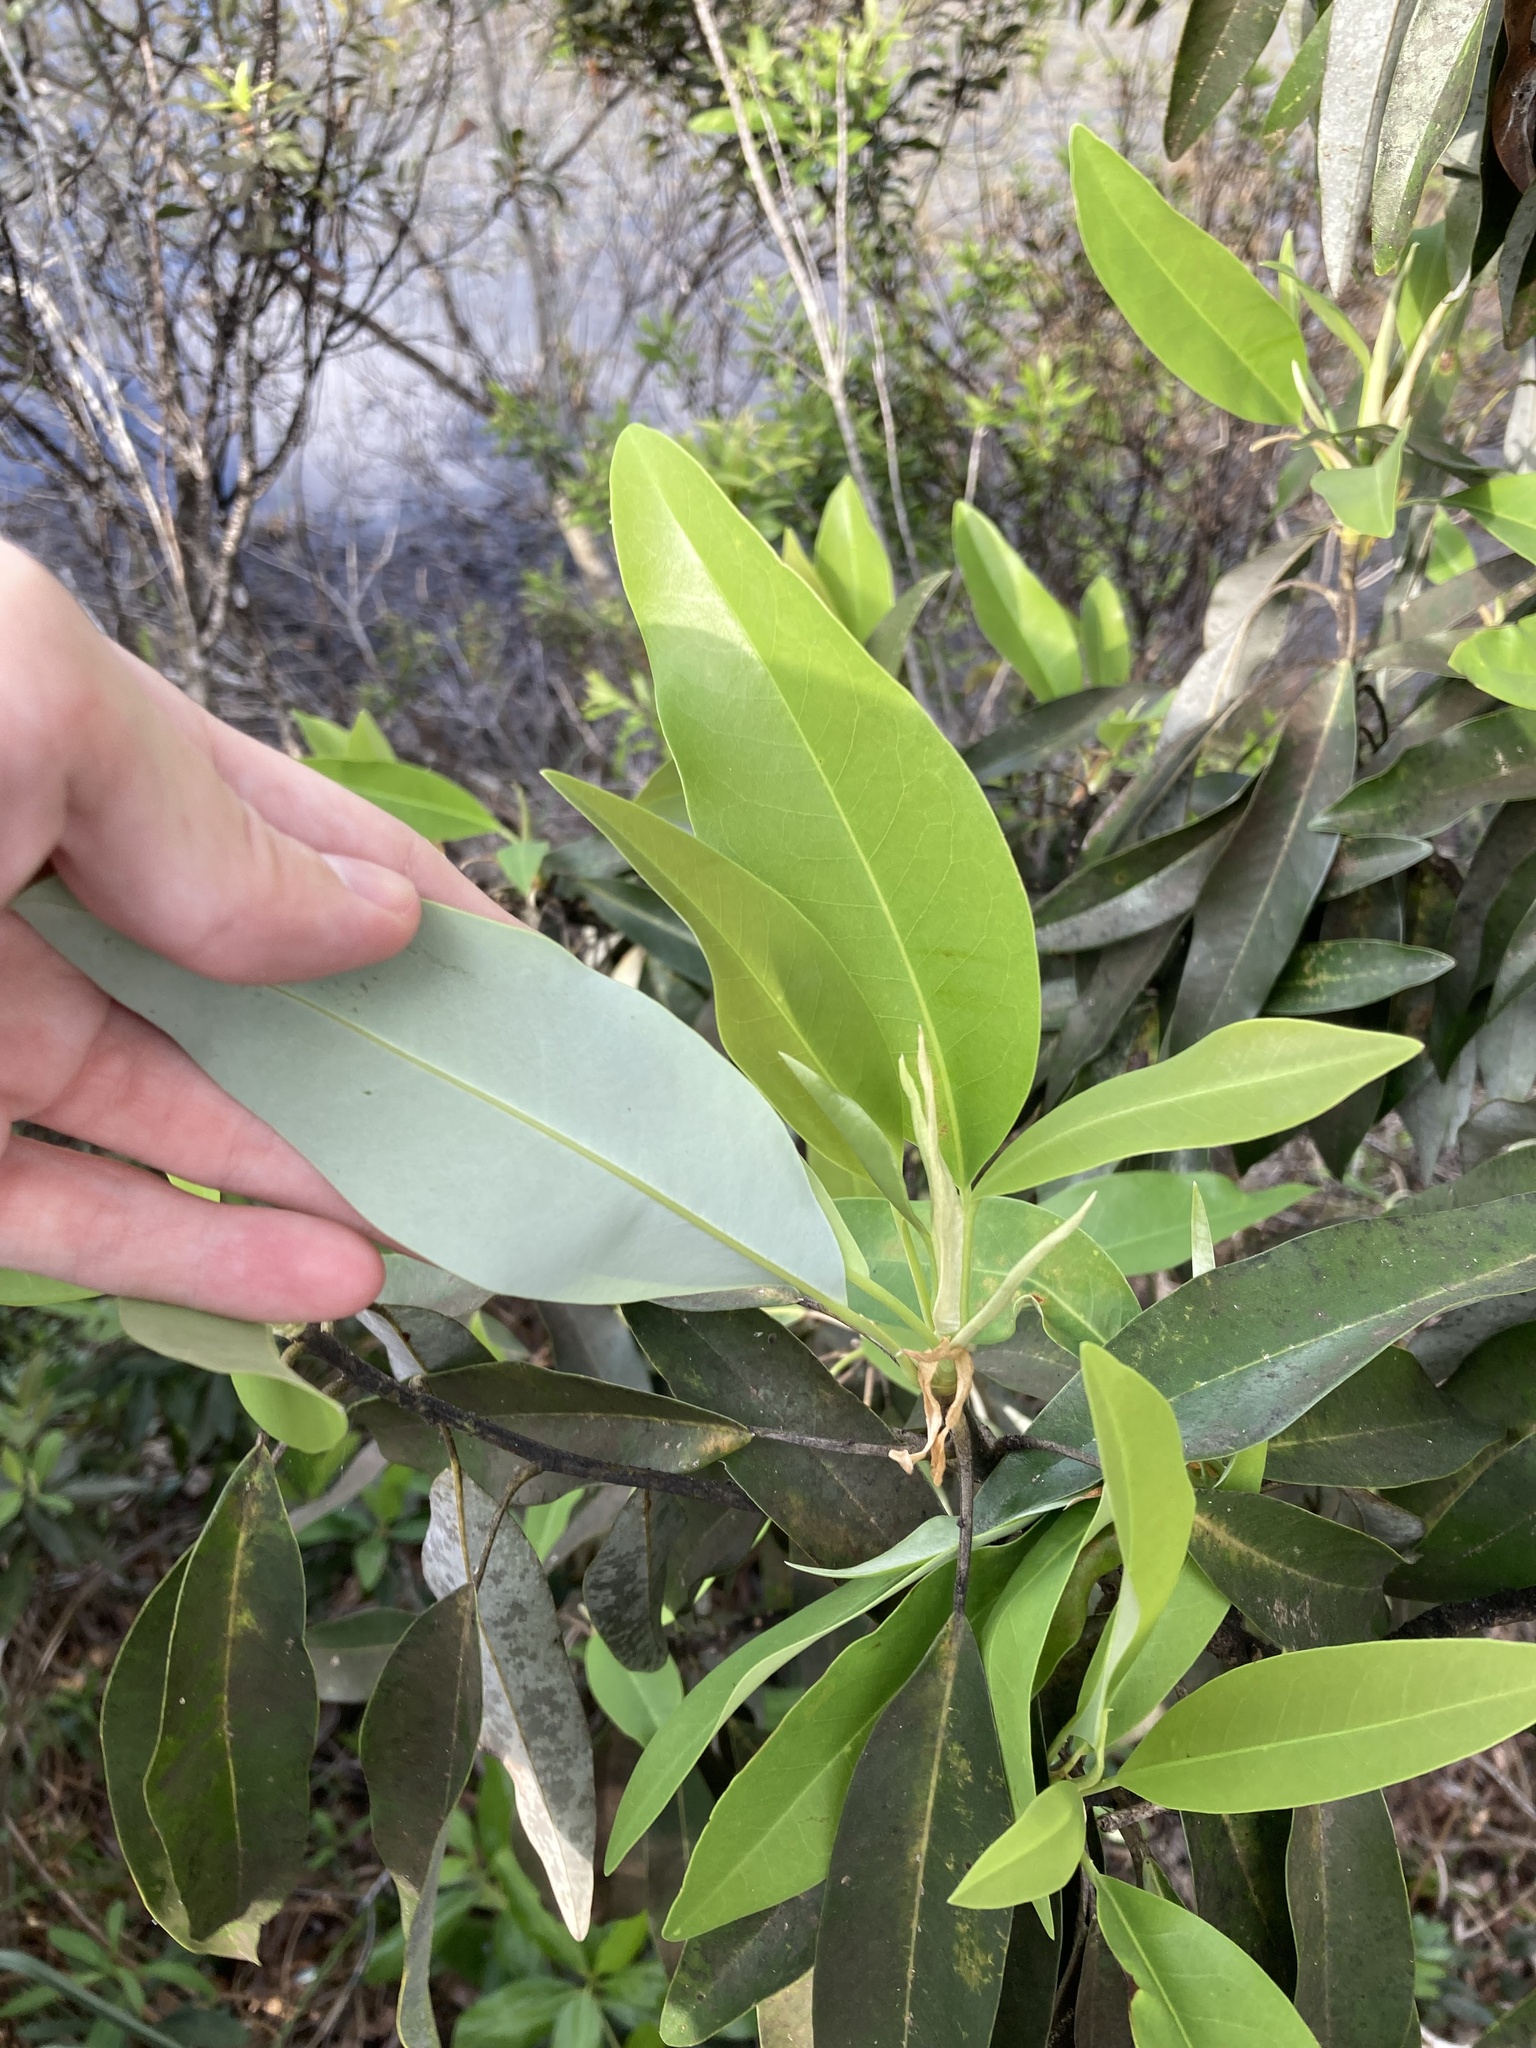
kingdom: Plantae
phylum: Tracheophyta
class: Magnoliopsida
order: Magnoliales
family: Magnoliaceae
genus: Magnolia
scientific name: Magnolia virginiana
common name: Swamp bay
